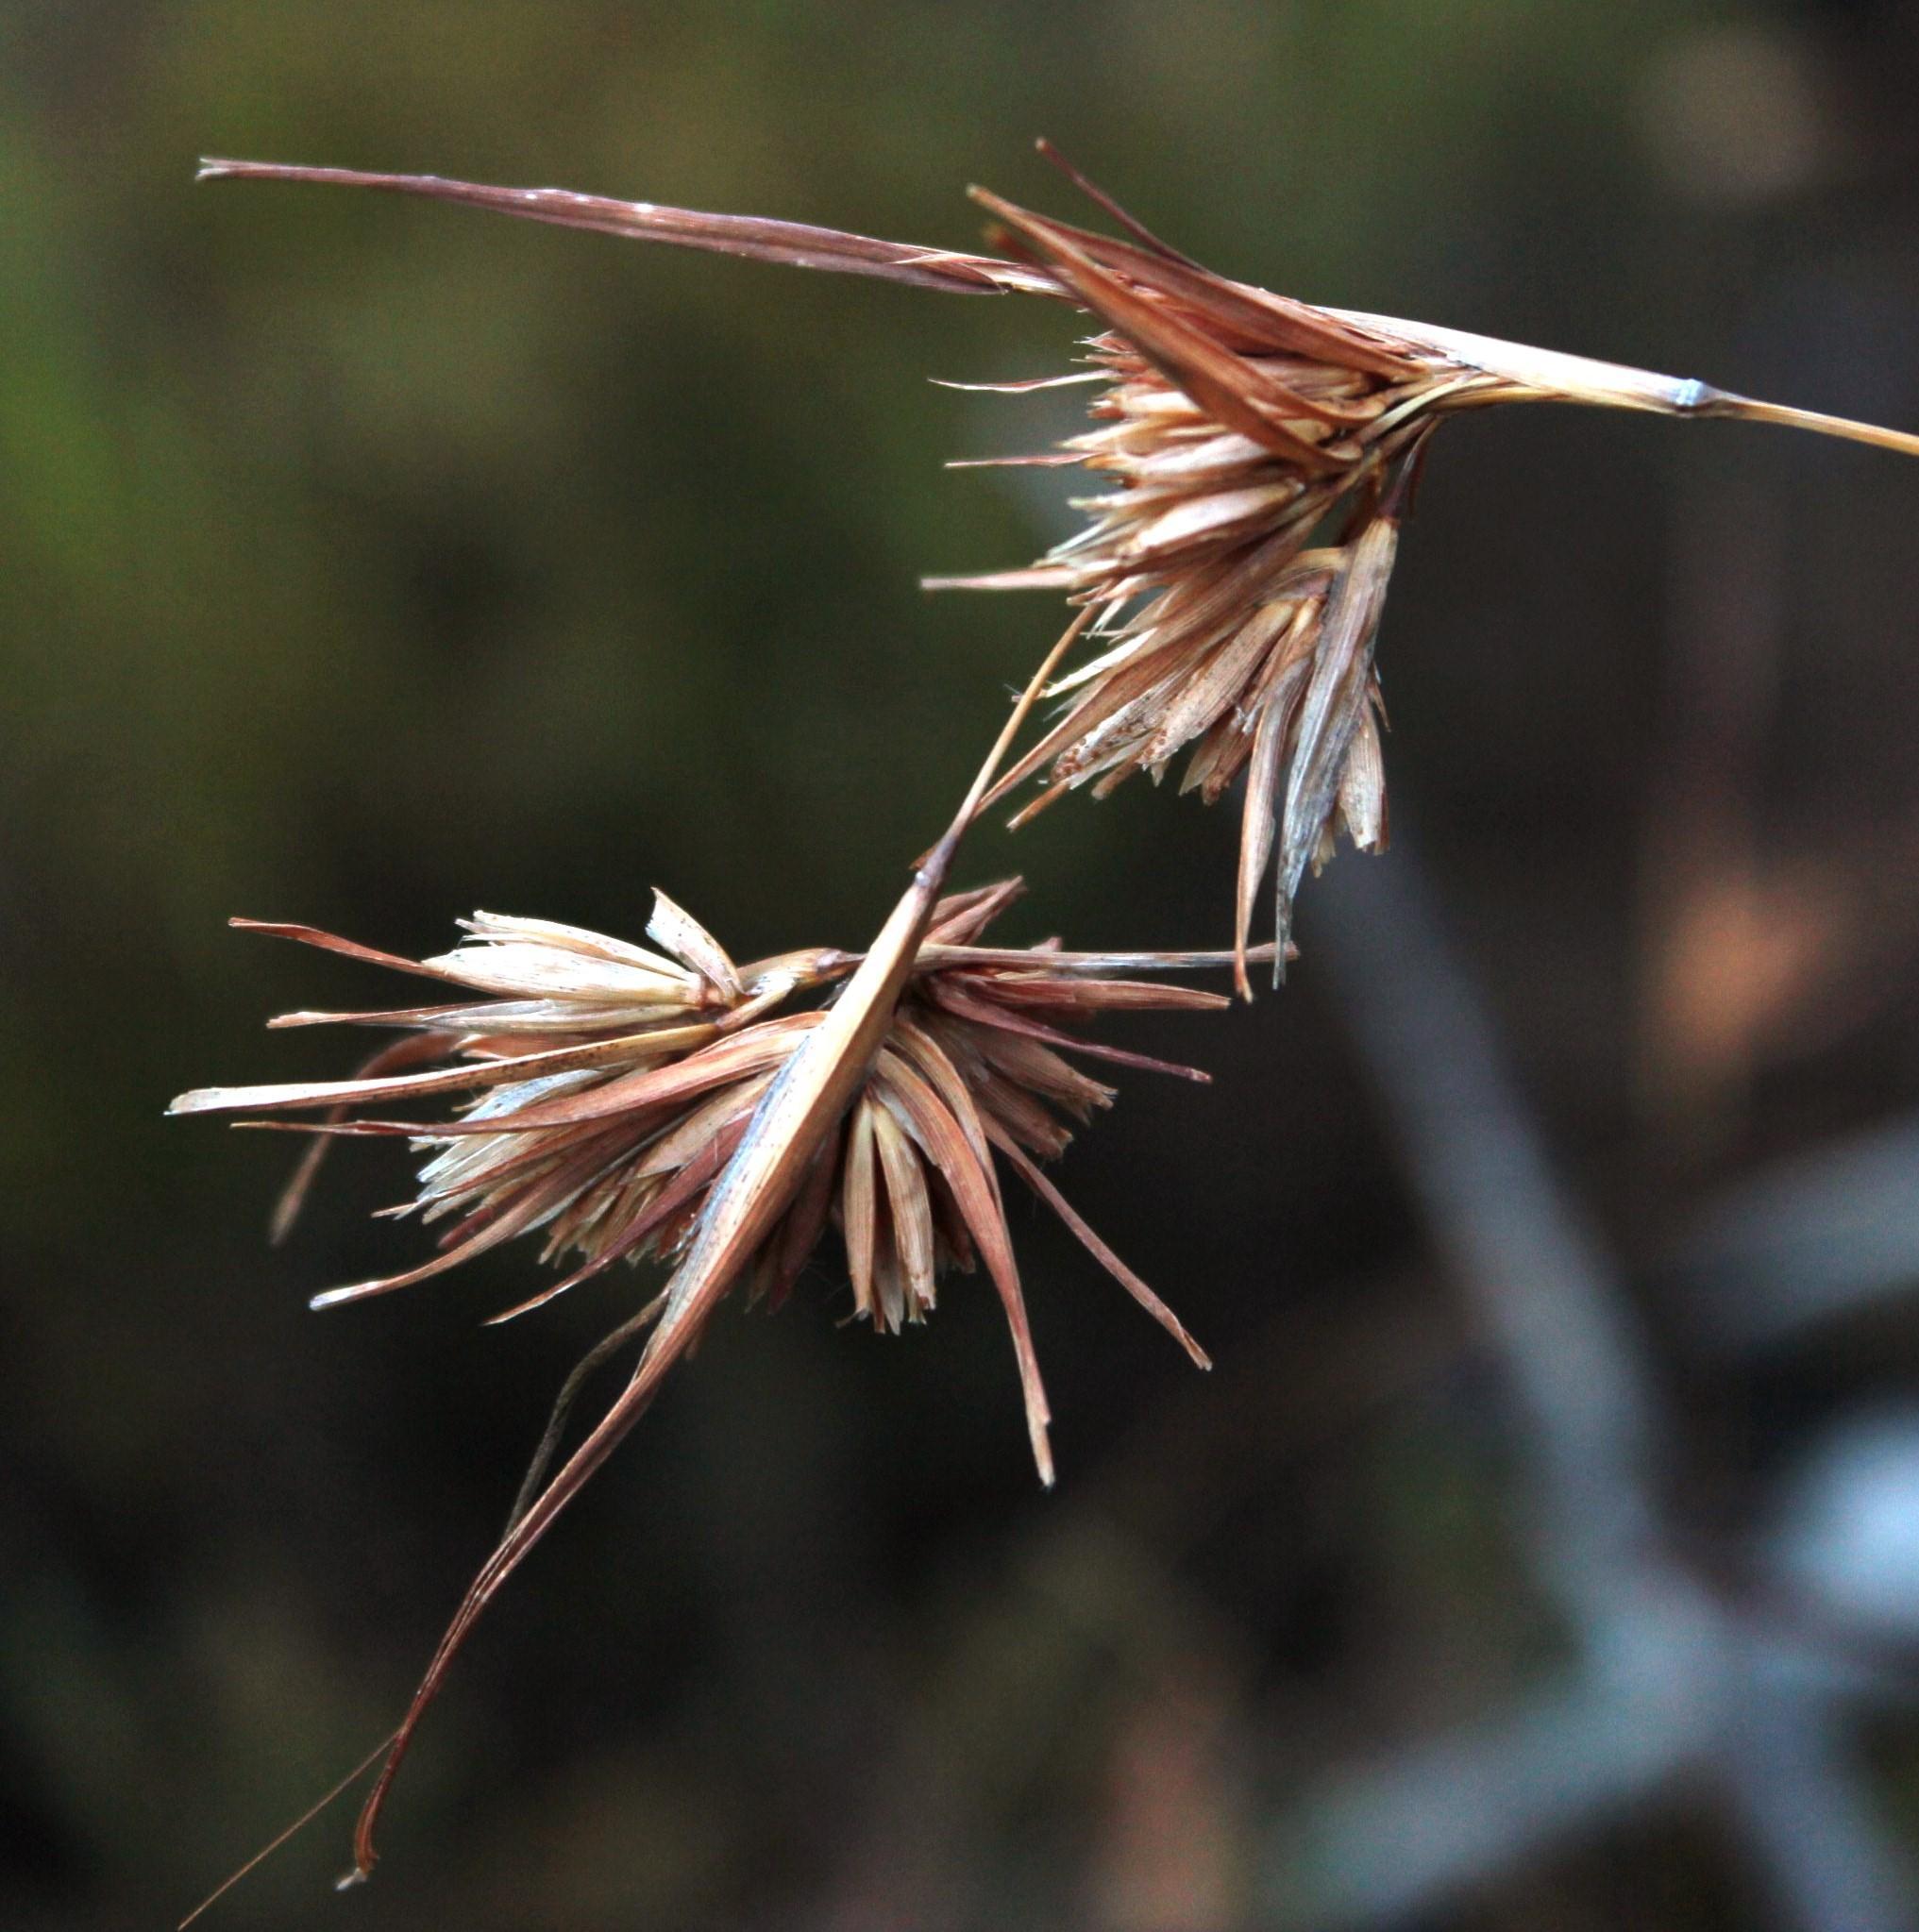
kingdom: Plantae
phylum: Tracheophyta
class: Liliopsida
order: Poales
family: Poaceae
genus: Themeda
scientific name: Themeda triandra
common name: Kangaroo grass
